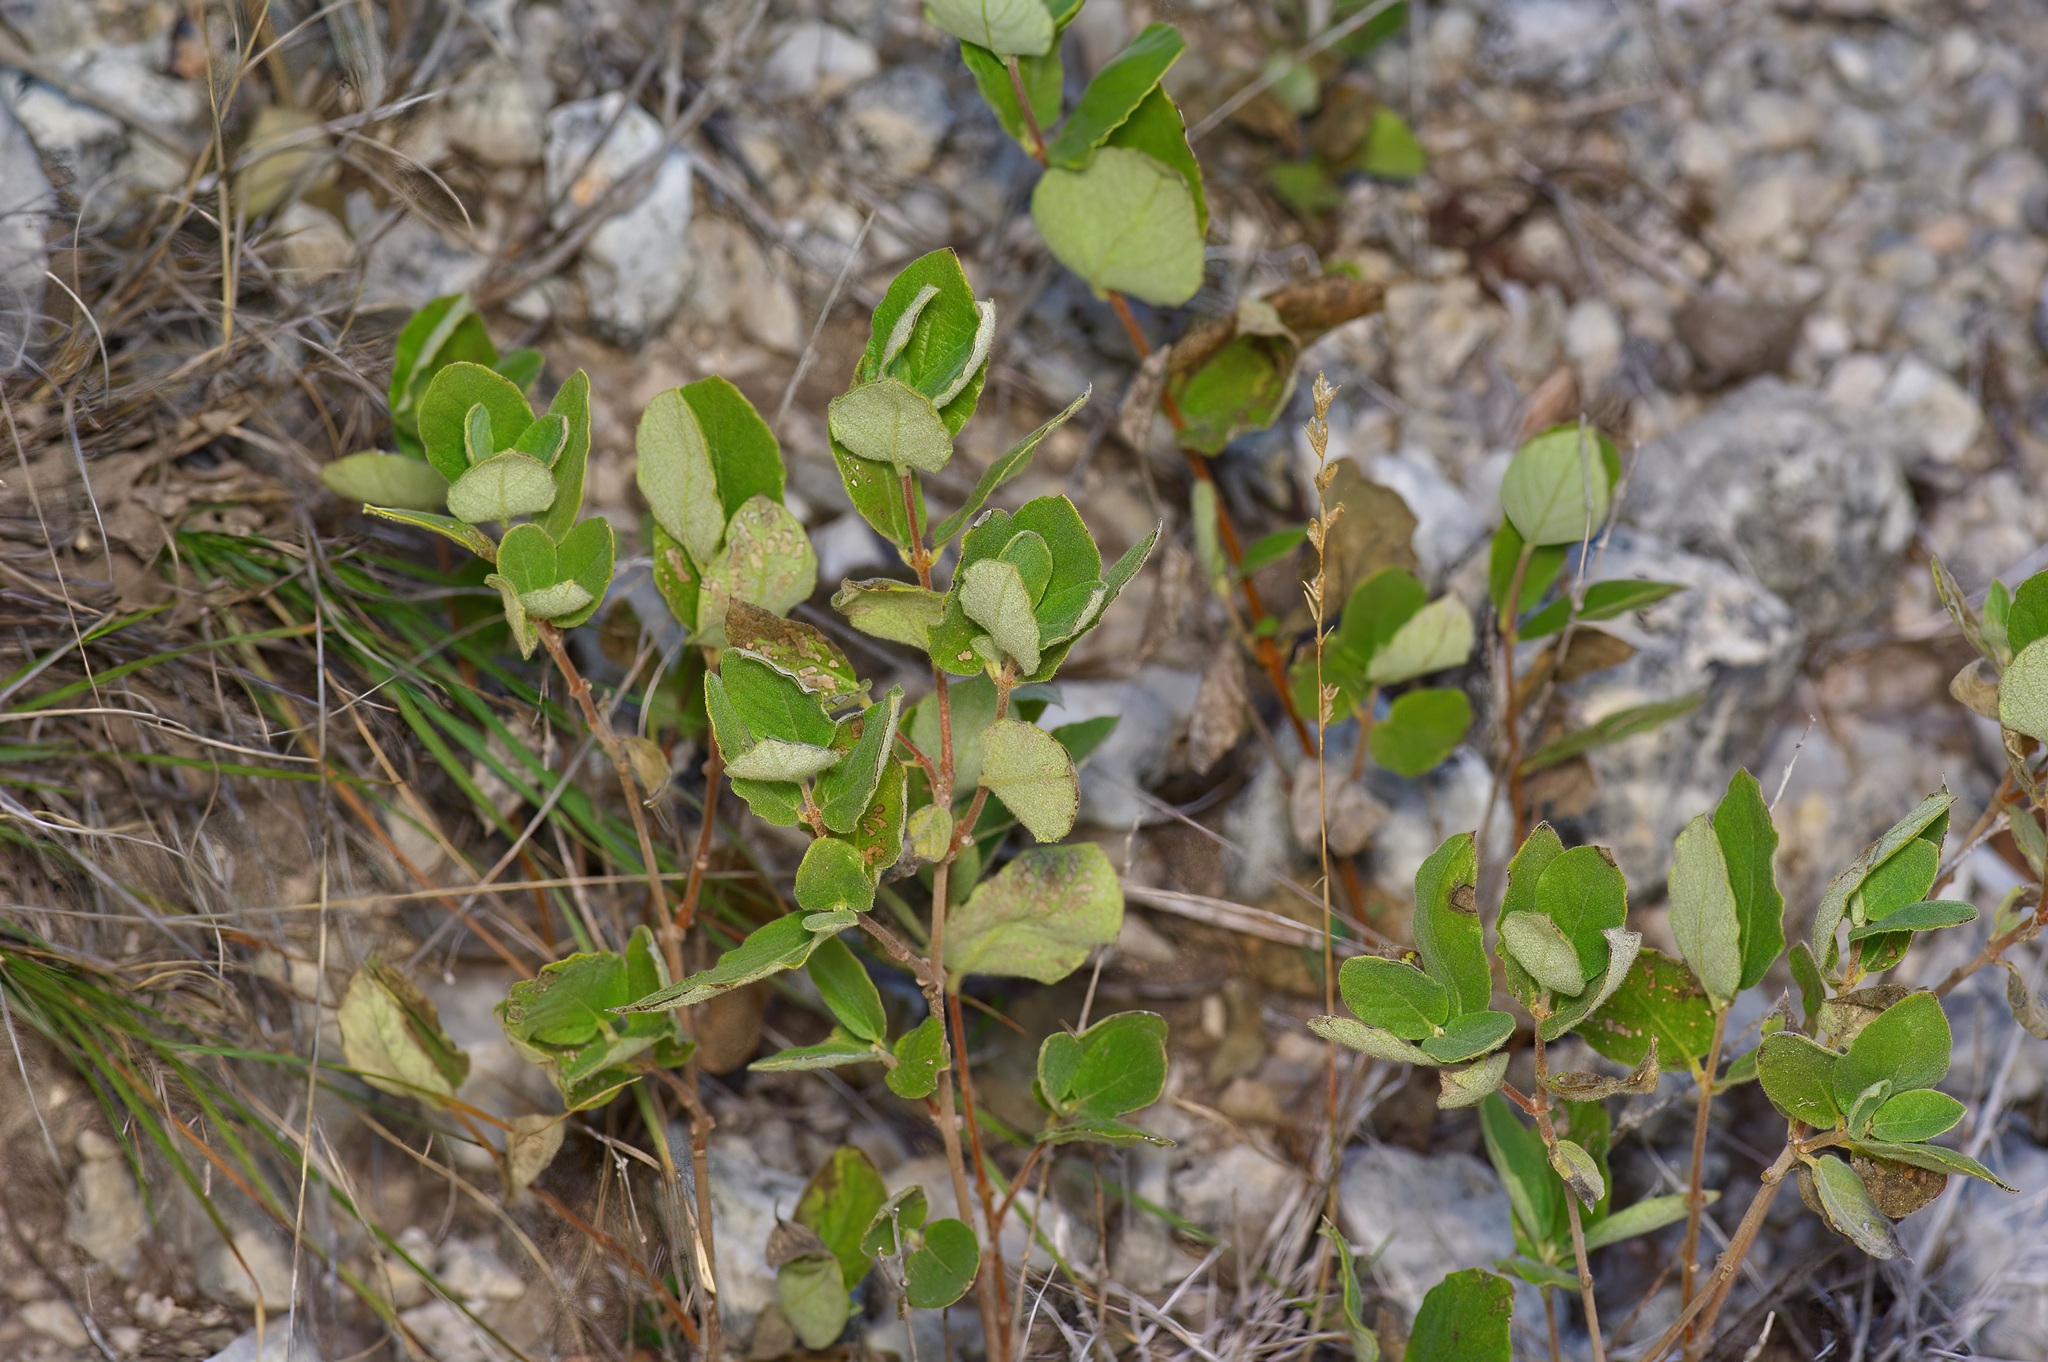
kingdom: Plantae
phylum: Tracheophyta
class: Magnoliopsida
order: Gentianales
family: Apocynaceae
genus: Mandevilla
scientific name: Mandevilla macrosiphon
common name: Plateau rocktrumpet
